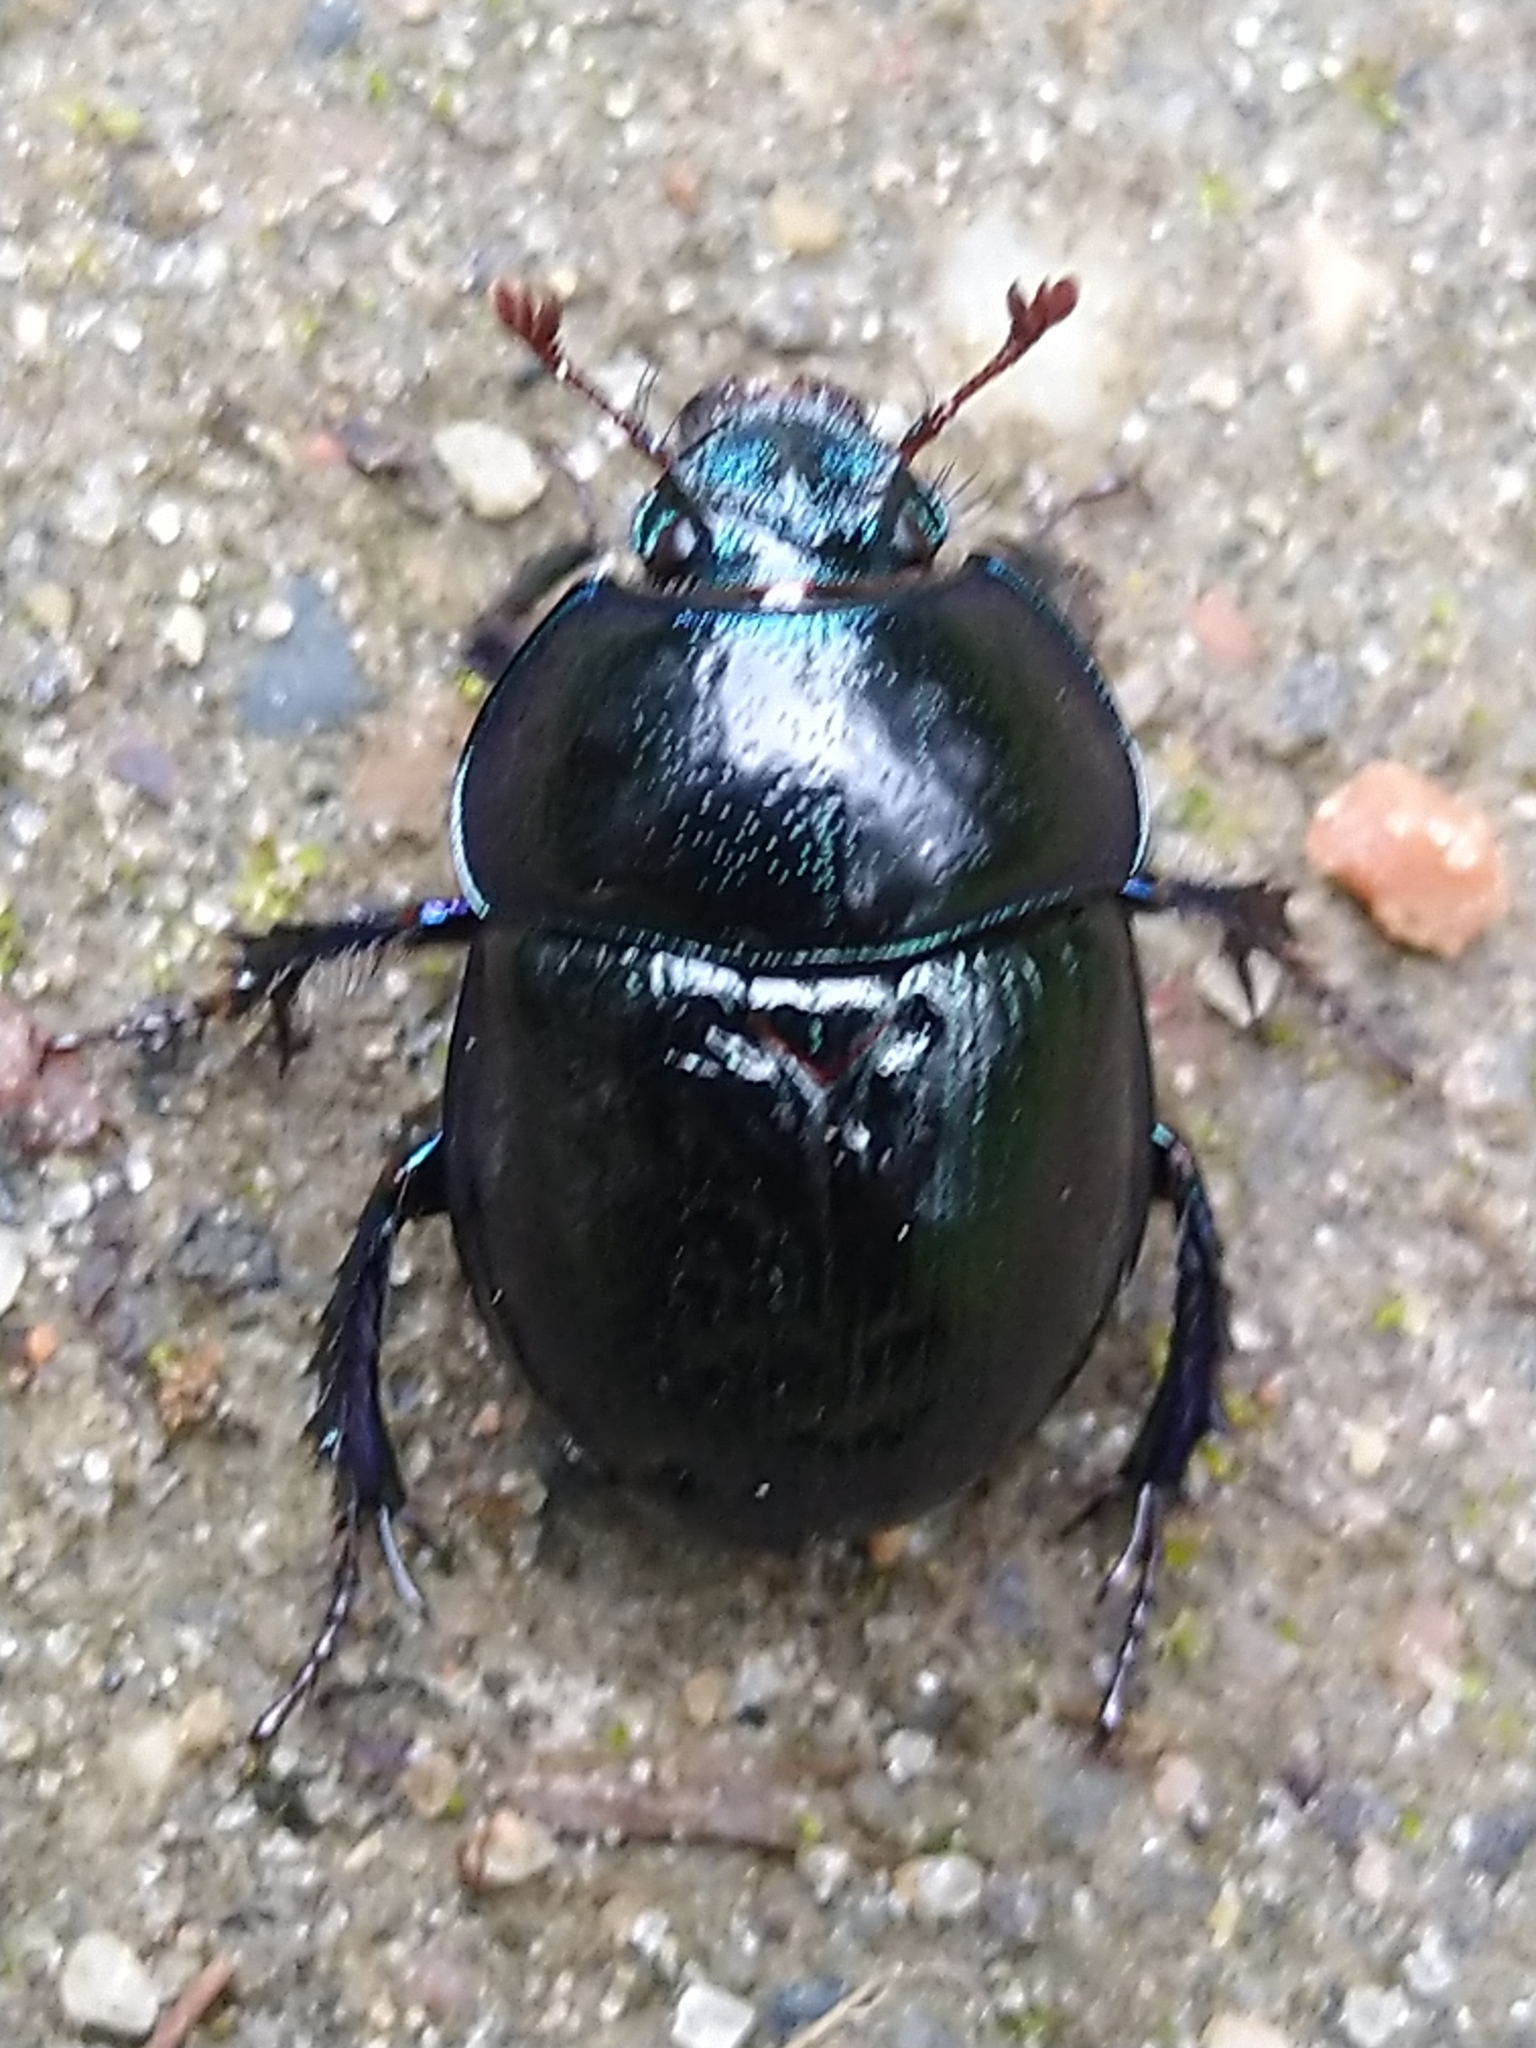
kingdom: Animalia
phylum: Arthropoda
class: Insecta
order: Coleoptera
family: Geotrupidae
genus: Anoplotrupes
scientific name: Anoplotrupes stercorosus
